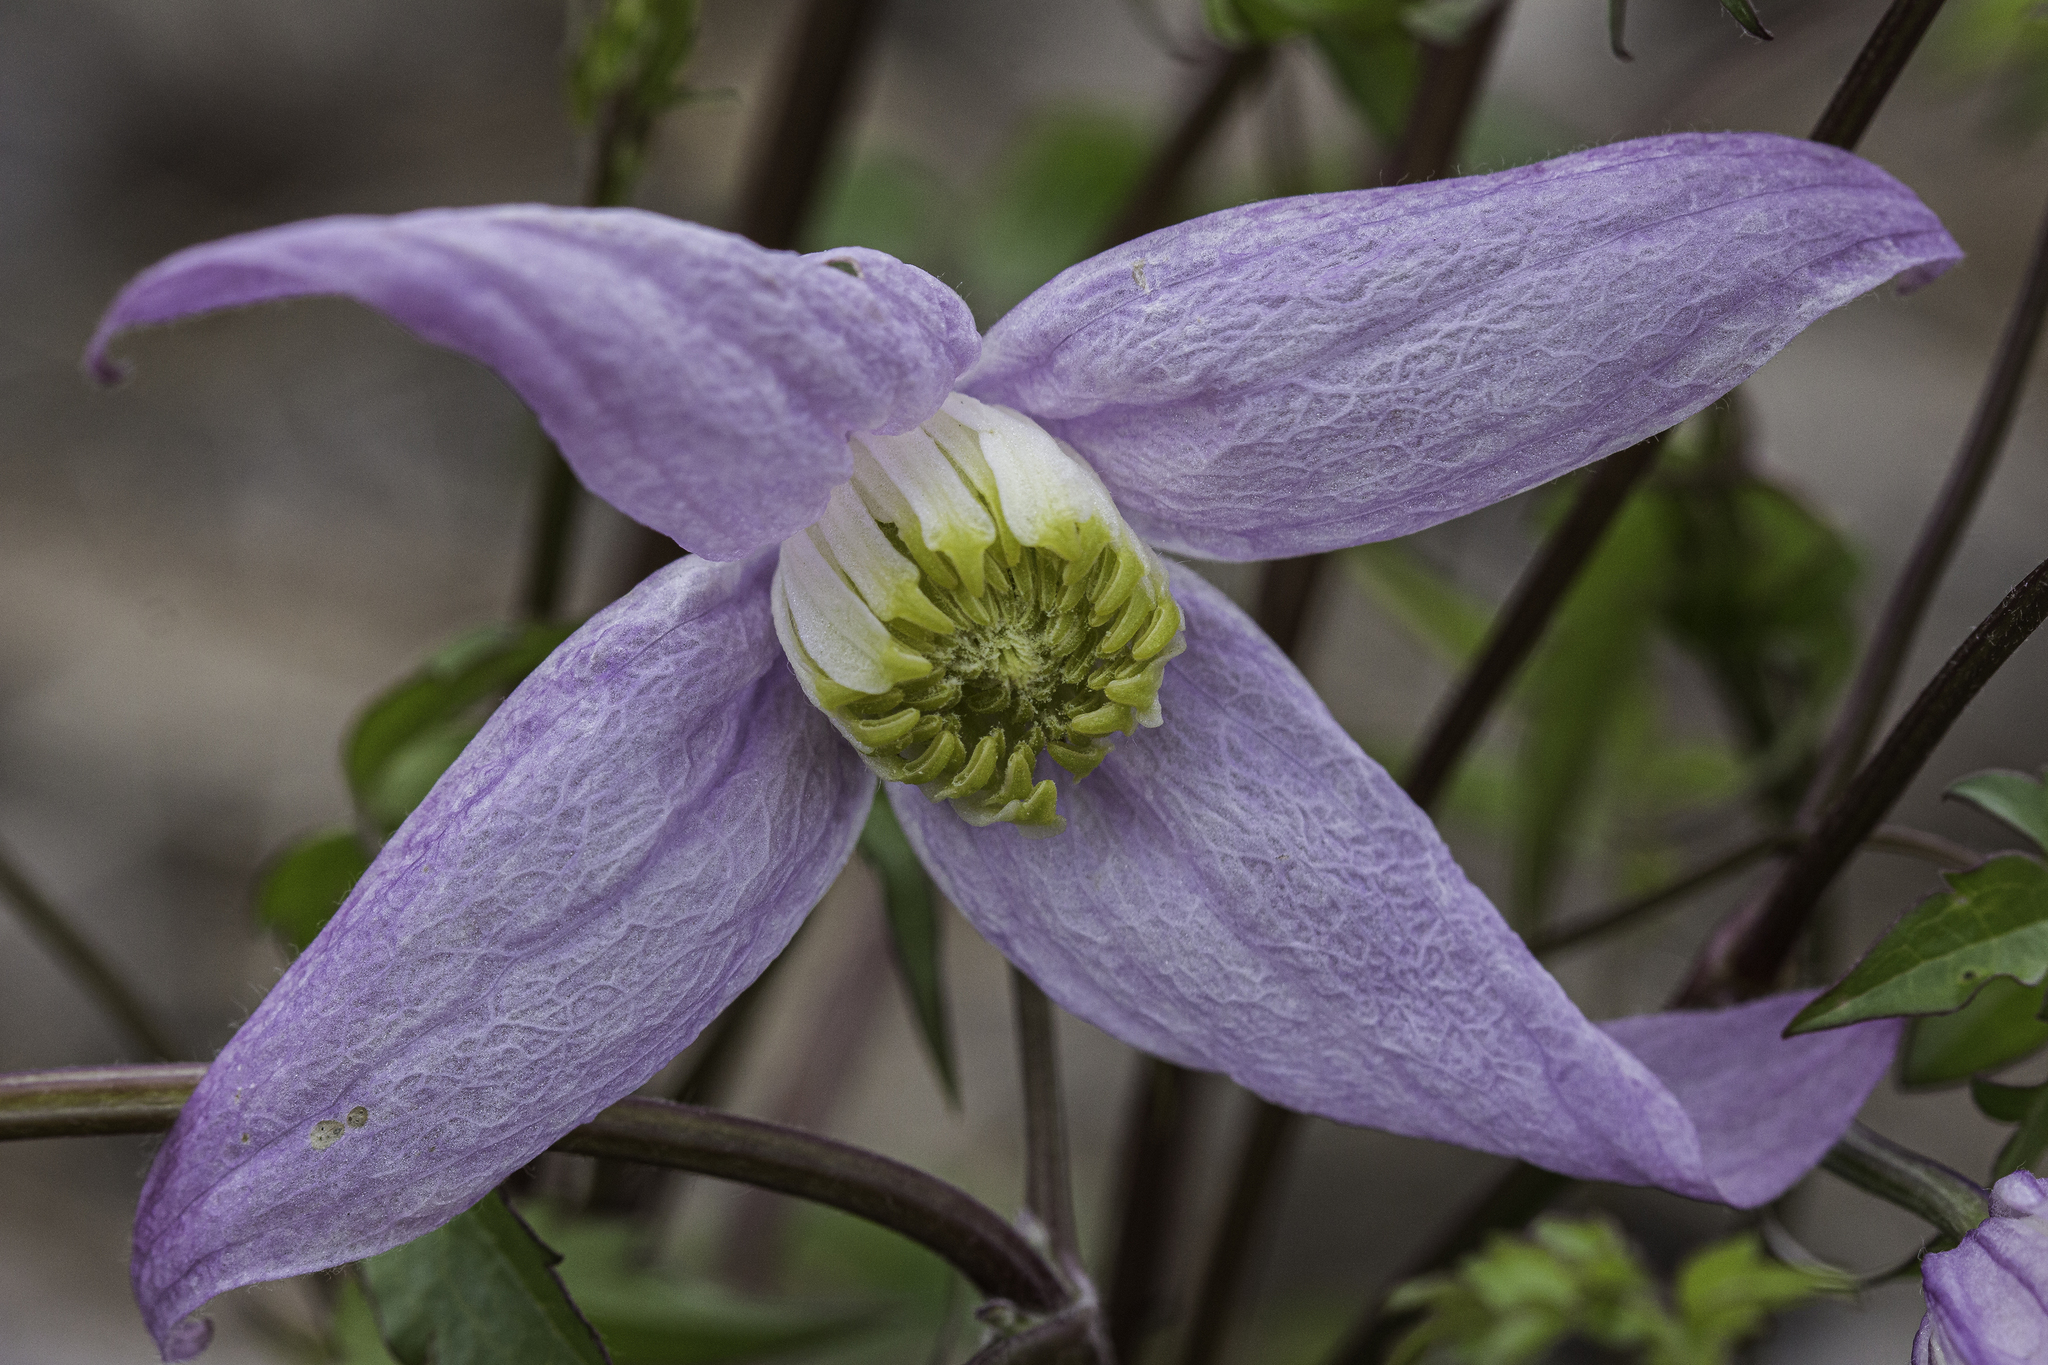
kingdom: Plantae
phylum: Tracheophyta
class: Magnoliopsida
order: Ranunculales
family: Ranunculaceae
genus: Clematis
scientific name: Clematis columbiana
